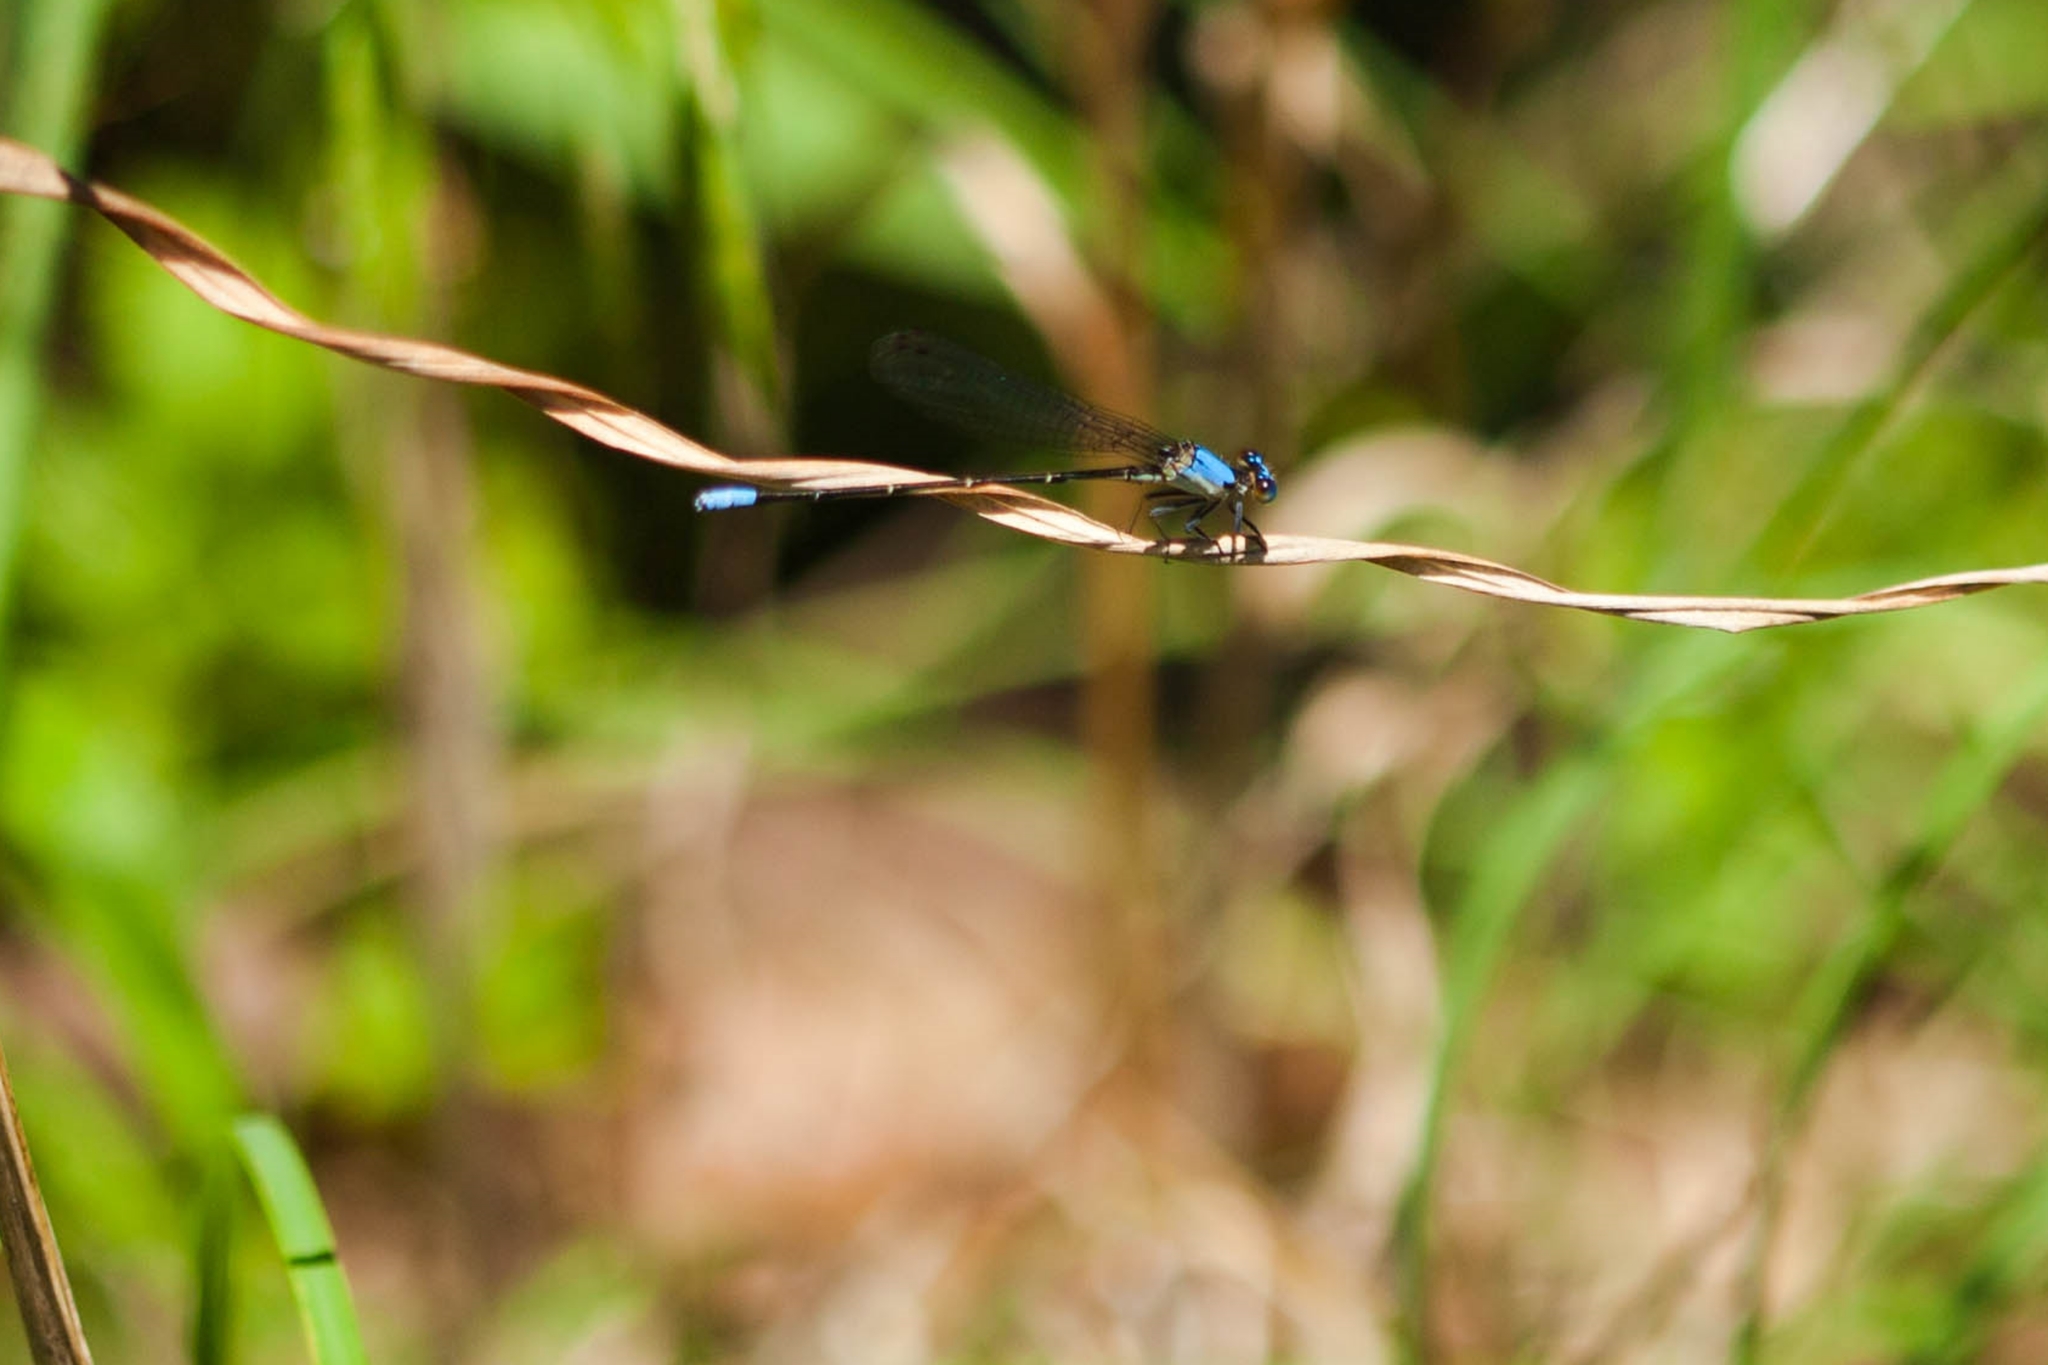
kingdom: Animalia
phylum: Arthropoda
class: Insecta
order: Odonata
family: Coenagrionidae
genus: Argia
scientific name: Argia apicalis
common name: Blue-fronted dancer
